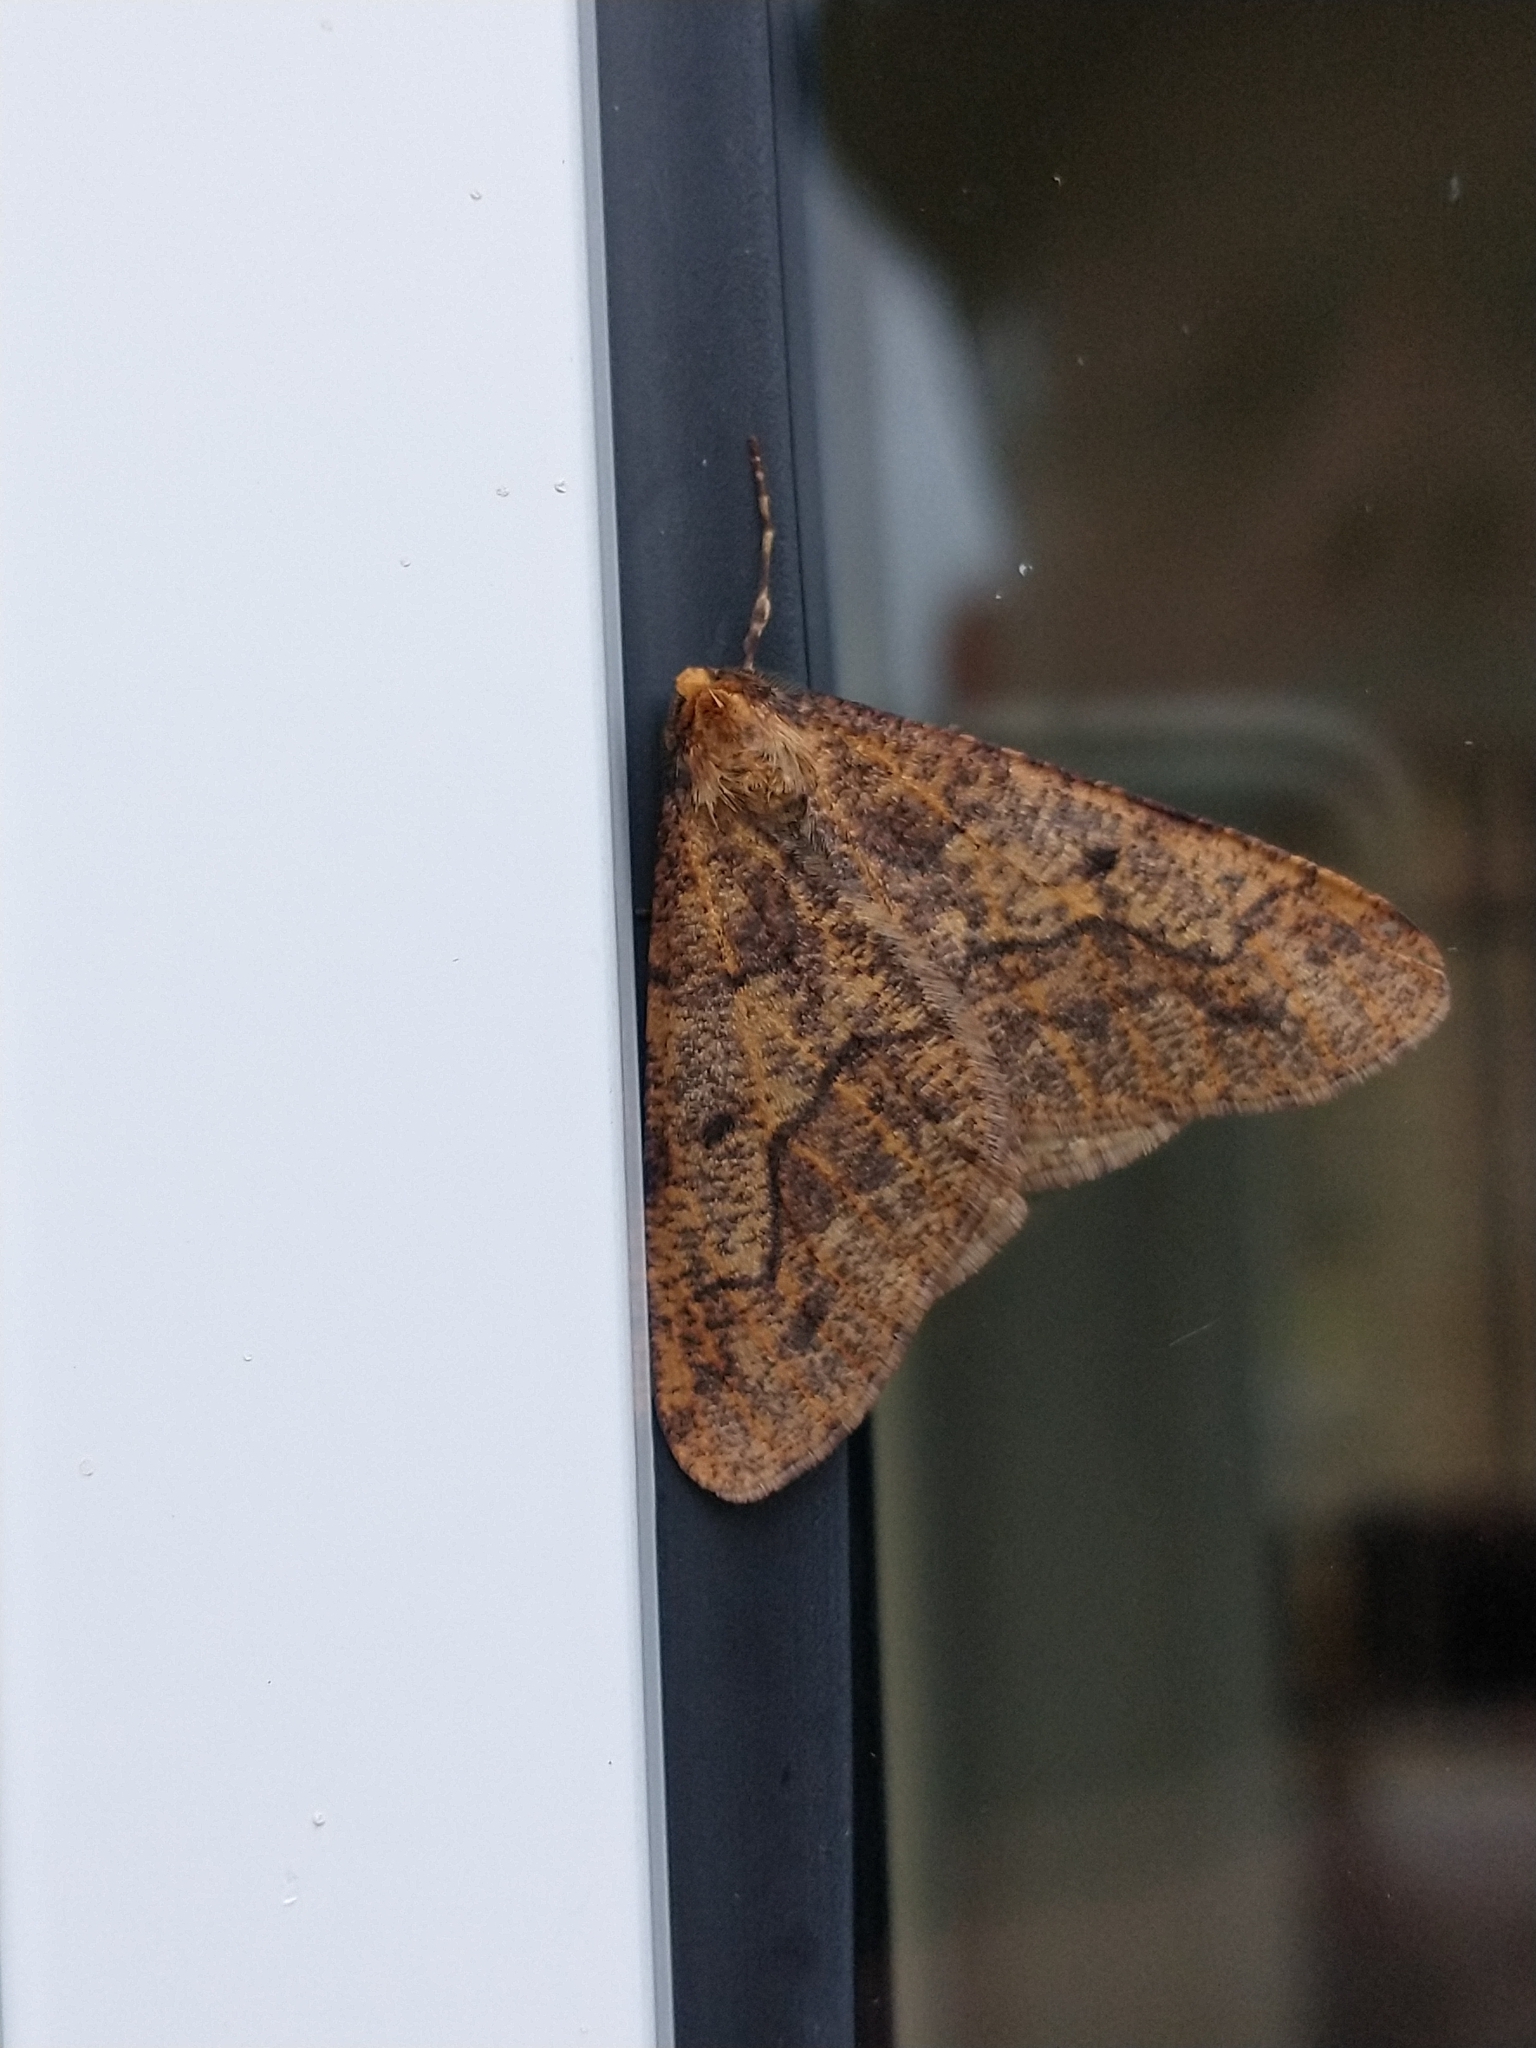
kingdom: Animalia
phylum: Arthropoda
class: Insecta
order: Lepidoptera
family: Geometridae
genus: Erannis
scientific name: Erannis defoliaria
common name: Mottled umber
